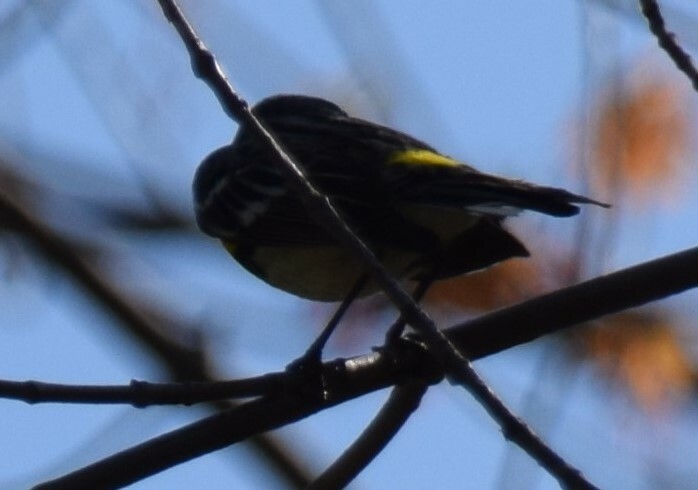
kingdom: Animalia
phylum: Chordata
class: Aves
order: Passeriformes
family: Parulidae
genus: Setophaga
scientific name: Setophaga coronata
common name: Myrtle warbler
